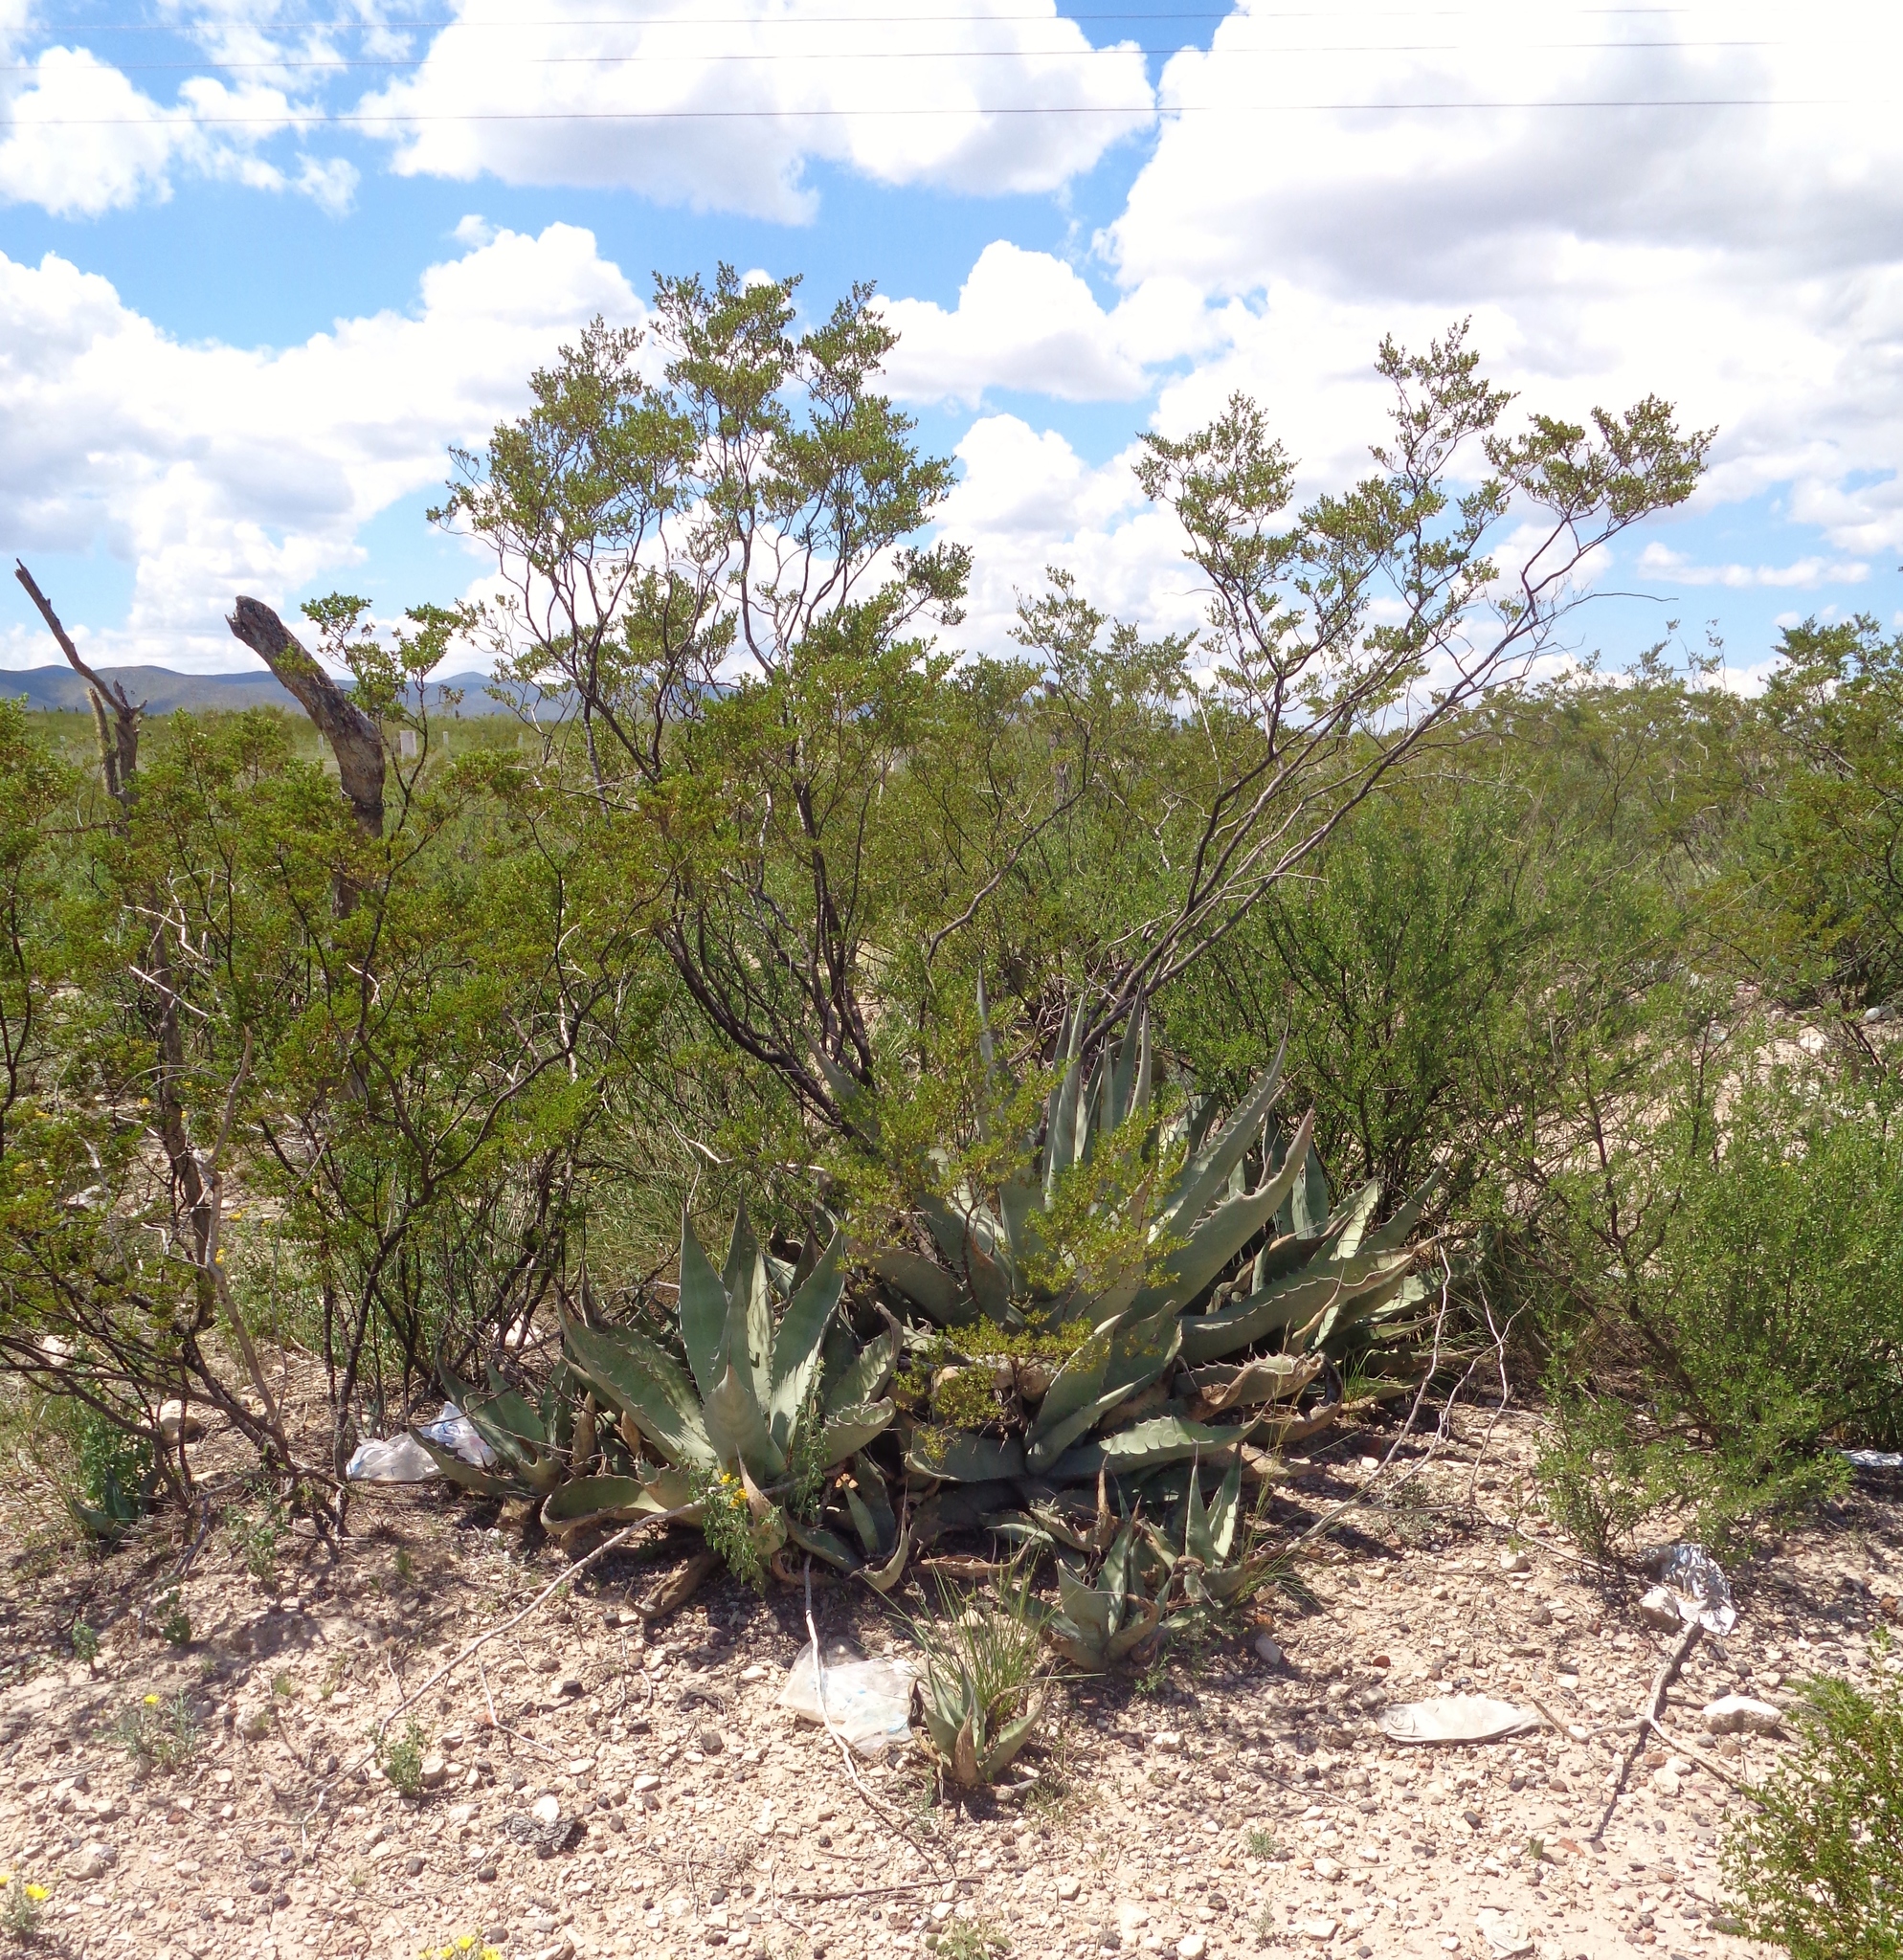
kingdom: Plantae
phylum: Tracheophyta
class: Liliopsida
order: Asparagales
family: Asparagaceae
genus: Agave
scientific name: Agave asperrima
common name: Rough agave
